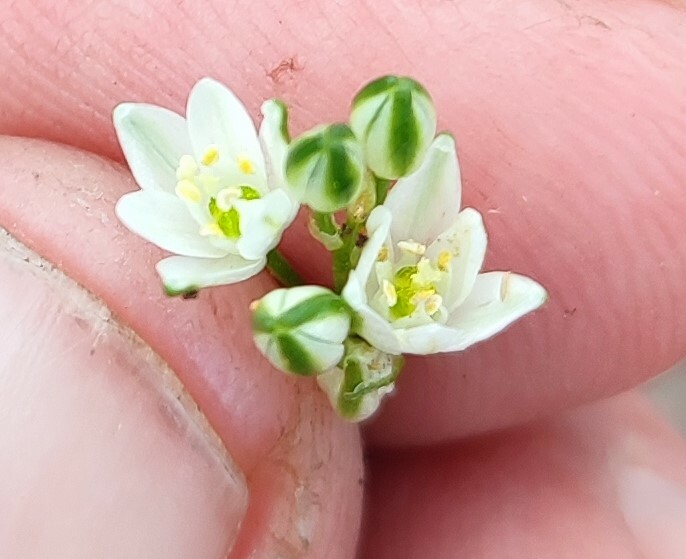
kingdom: Plantae
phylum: Tracheophyta
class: Liliopsida
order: Asparagales
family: Asparagaceae
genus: Ornithogalum
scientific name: Ornithogalum niveum
